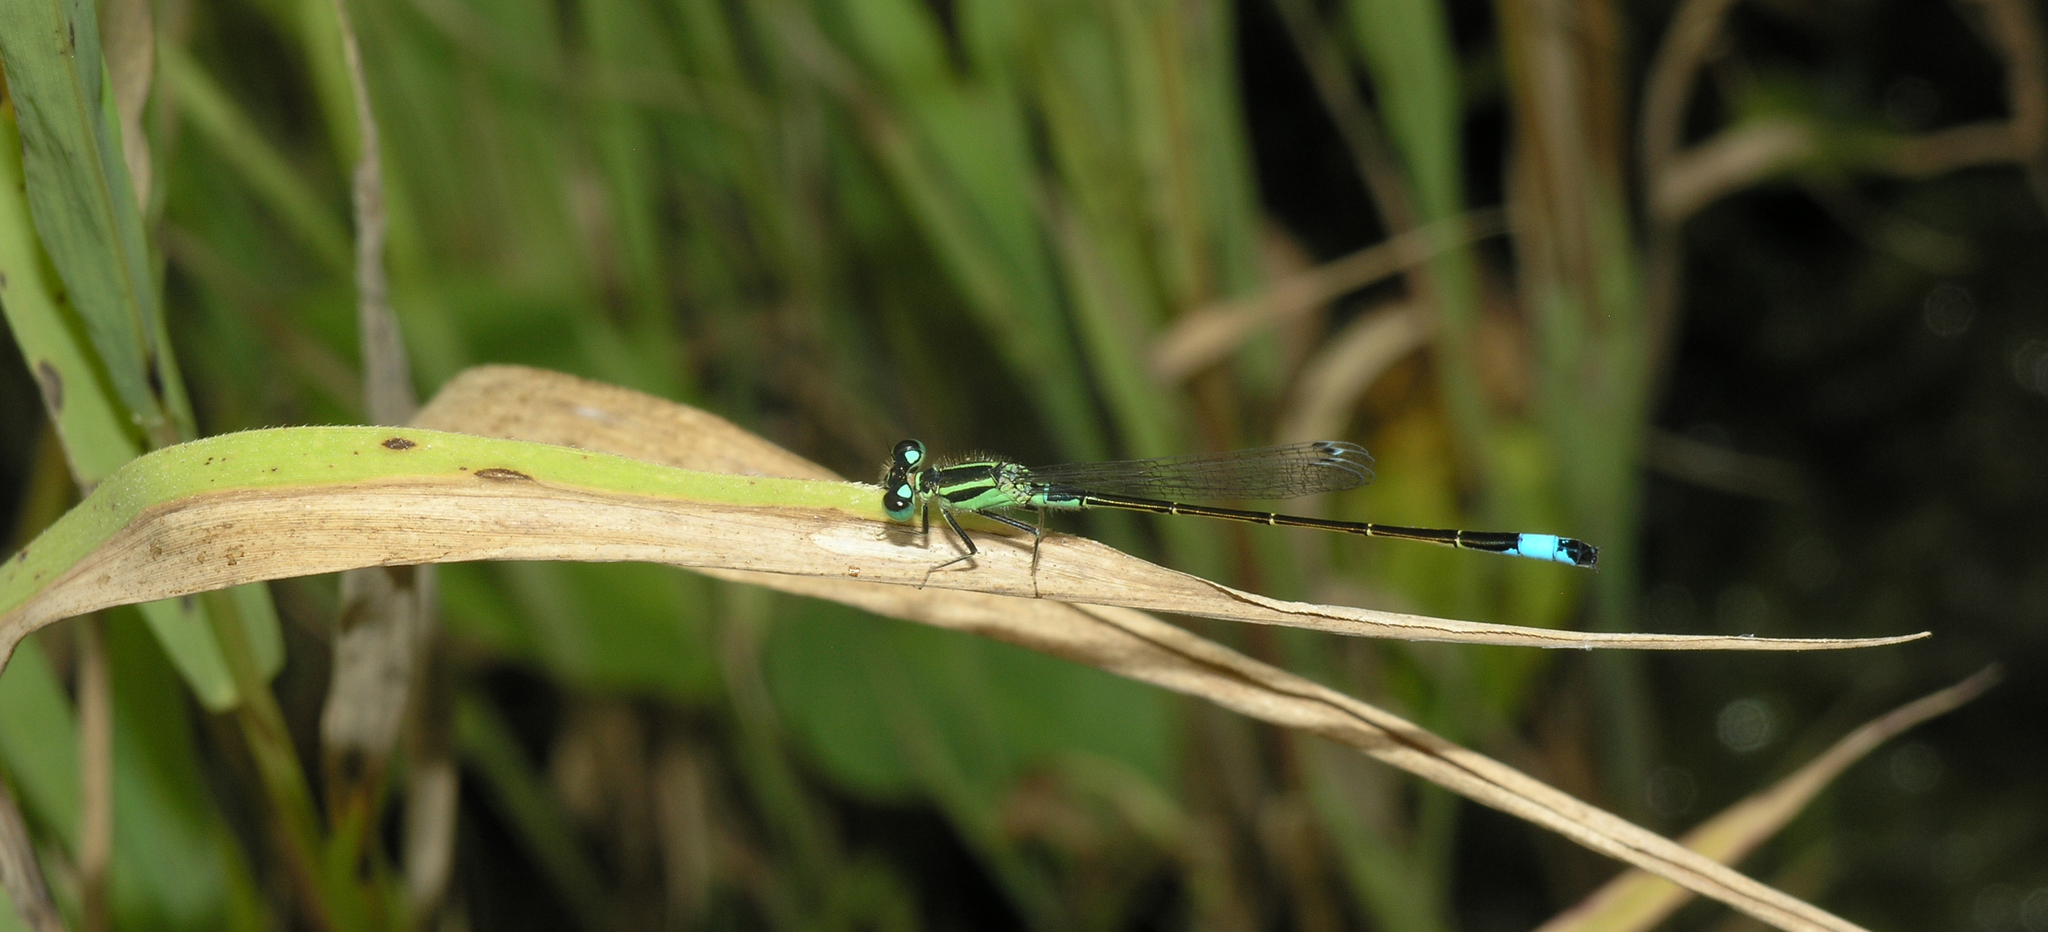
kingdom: Animalia
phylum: Arthropoda
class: Insecta
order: Odonata
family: Coenagrionidae
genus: Ischnura
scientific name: Ischnura elegans
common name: Blue-tailed damselfly
